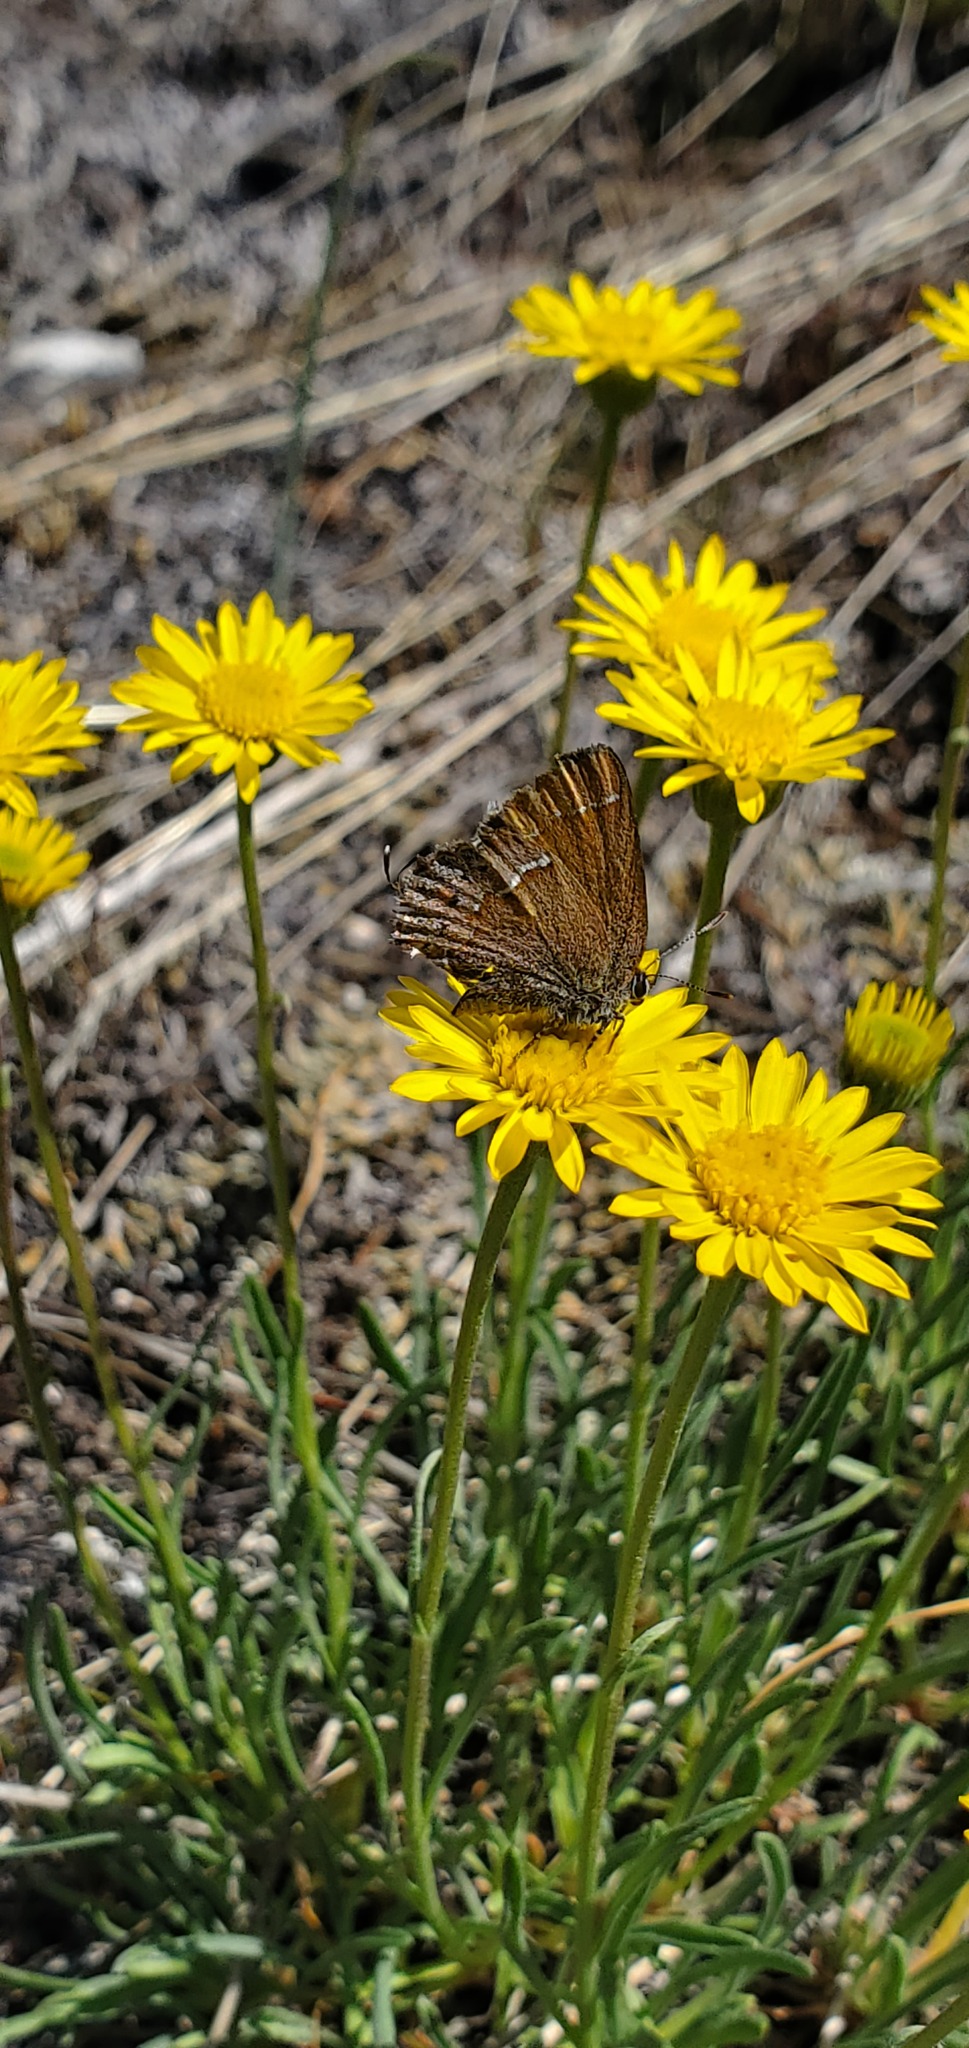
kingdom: Animalia
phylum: Arthropoda
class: Insecta
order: Lepidoptera
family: Lycaenidae
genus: Mitoura
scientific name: Mitoura gryneus
